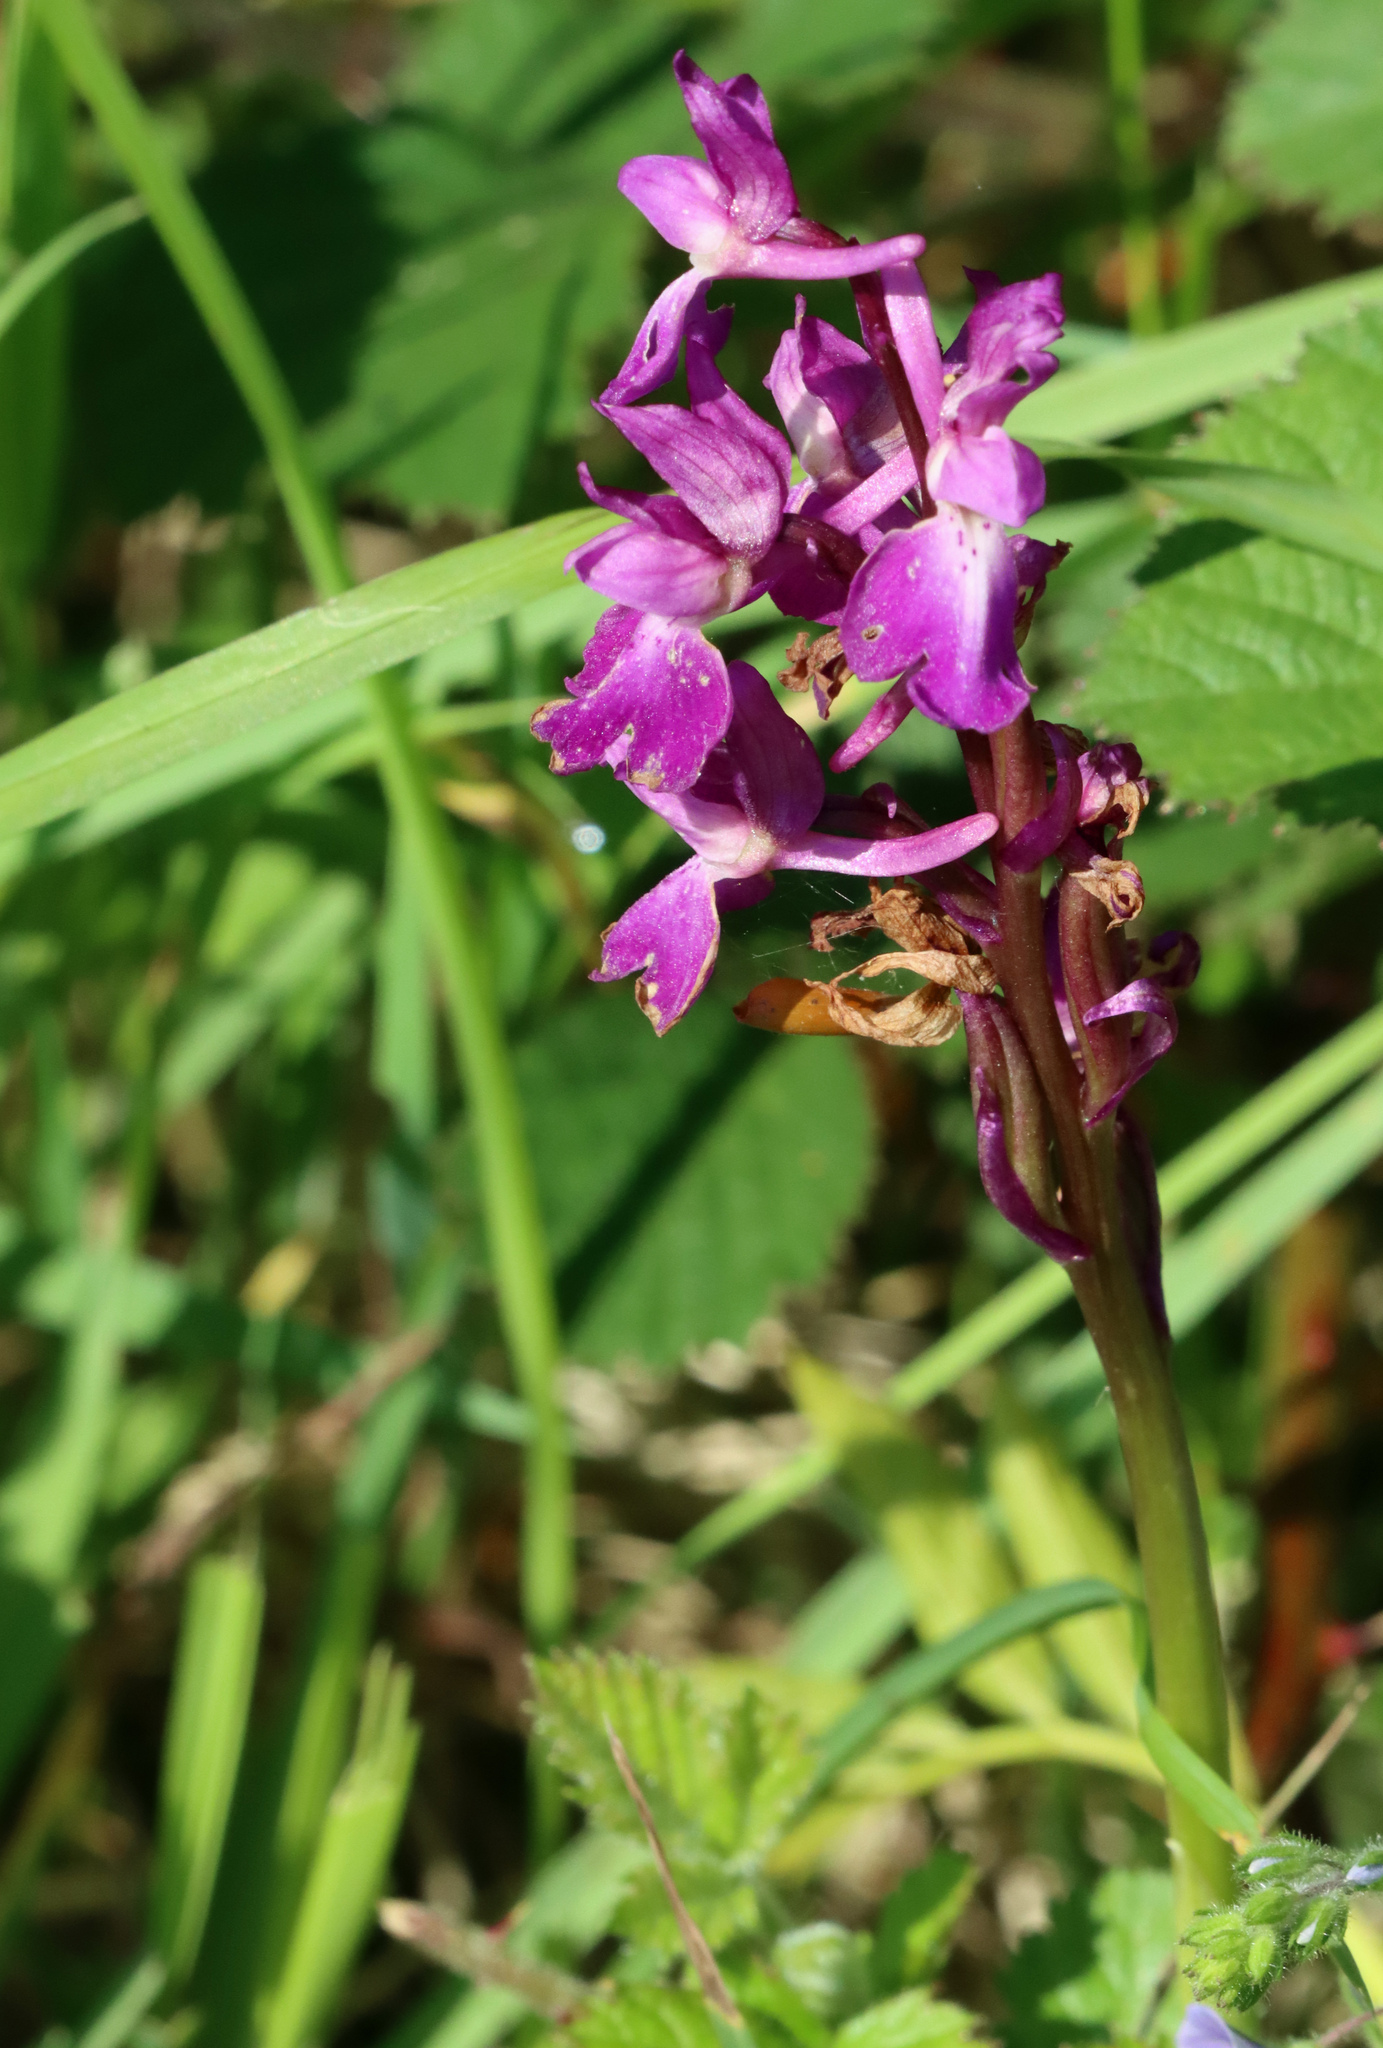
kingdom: Plantae
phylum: Tracheophyta
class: Liliopsida
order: Asparagales
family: Orchidaceae
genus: Orchis
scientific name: Orchis mascula
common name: Early-purple orchid
